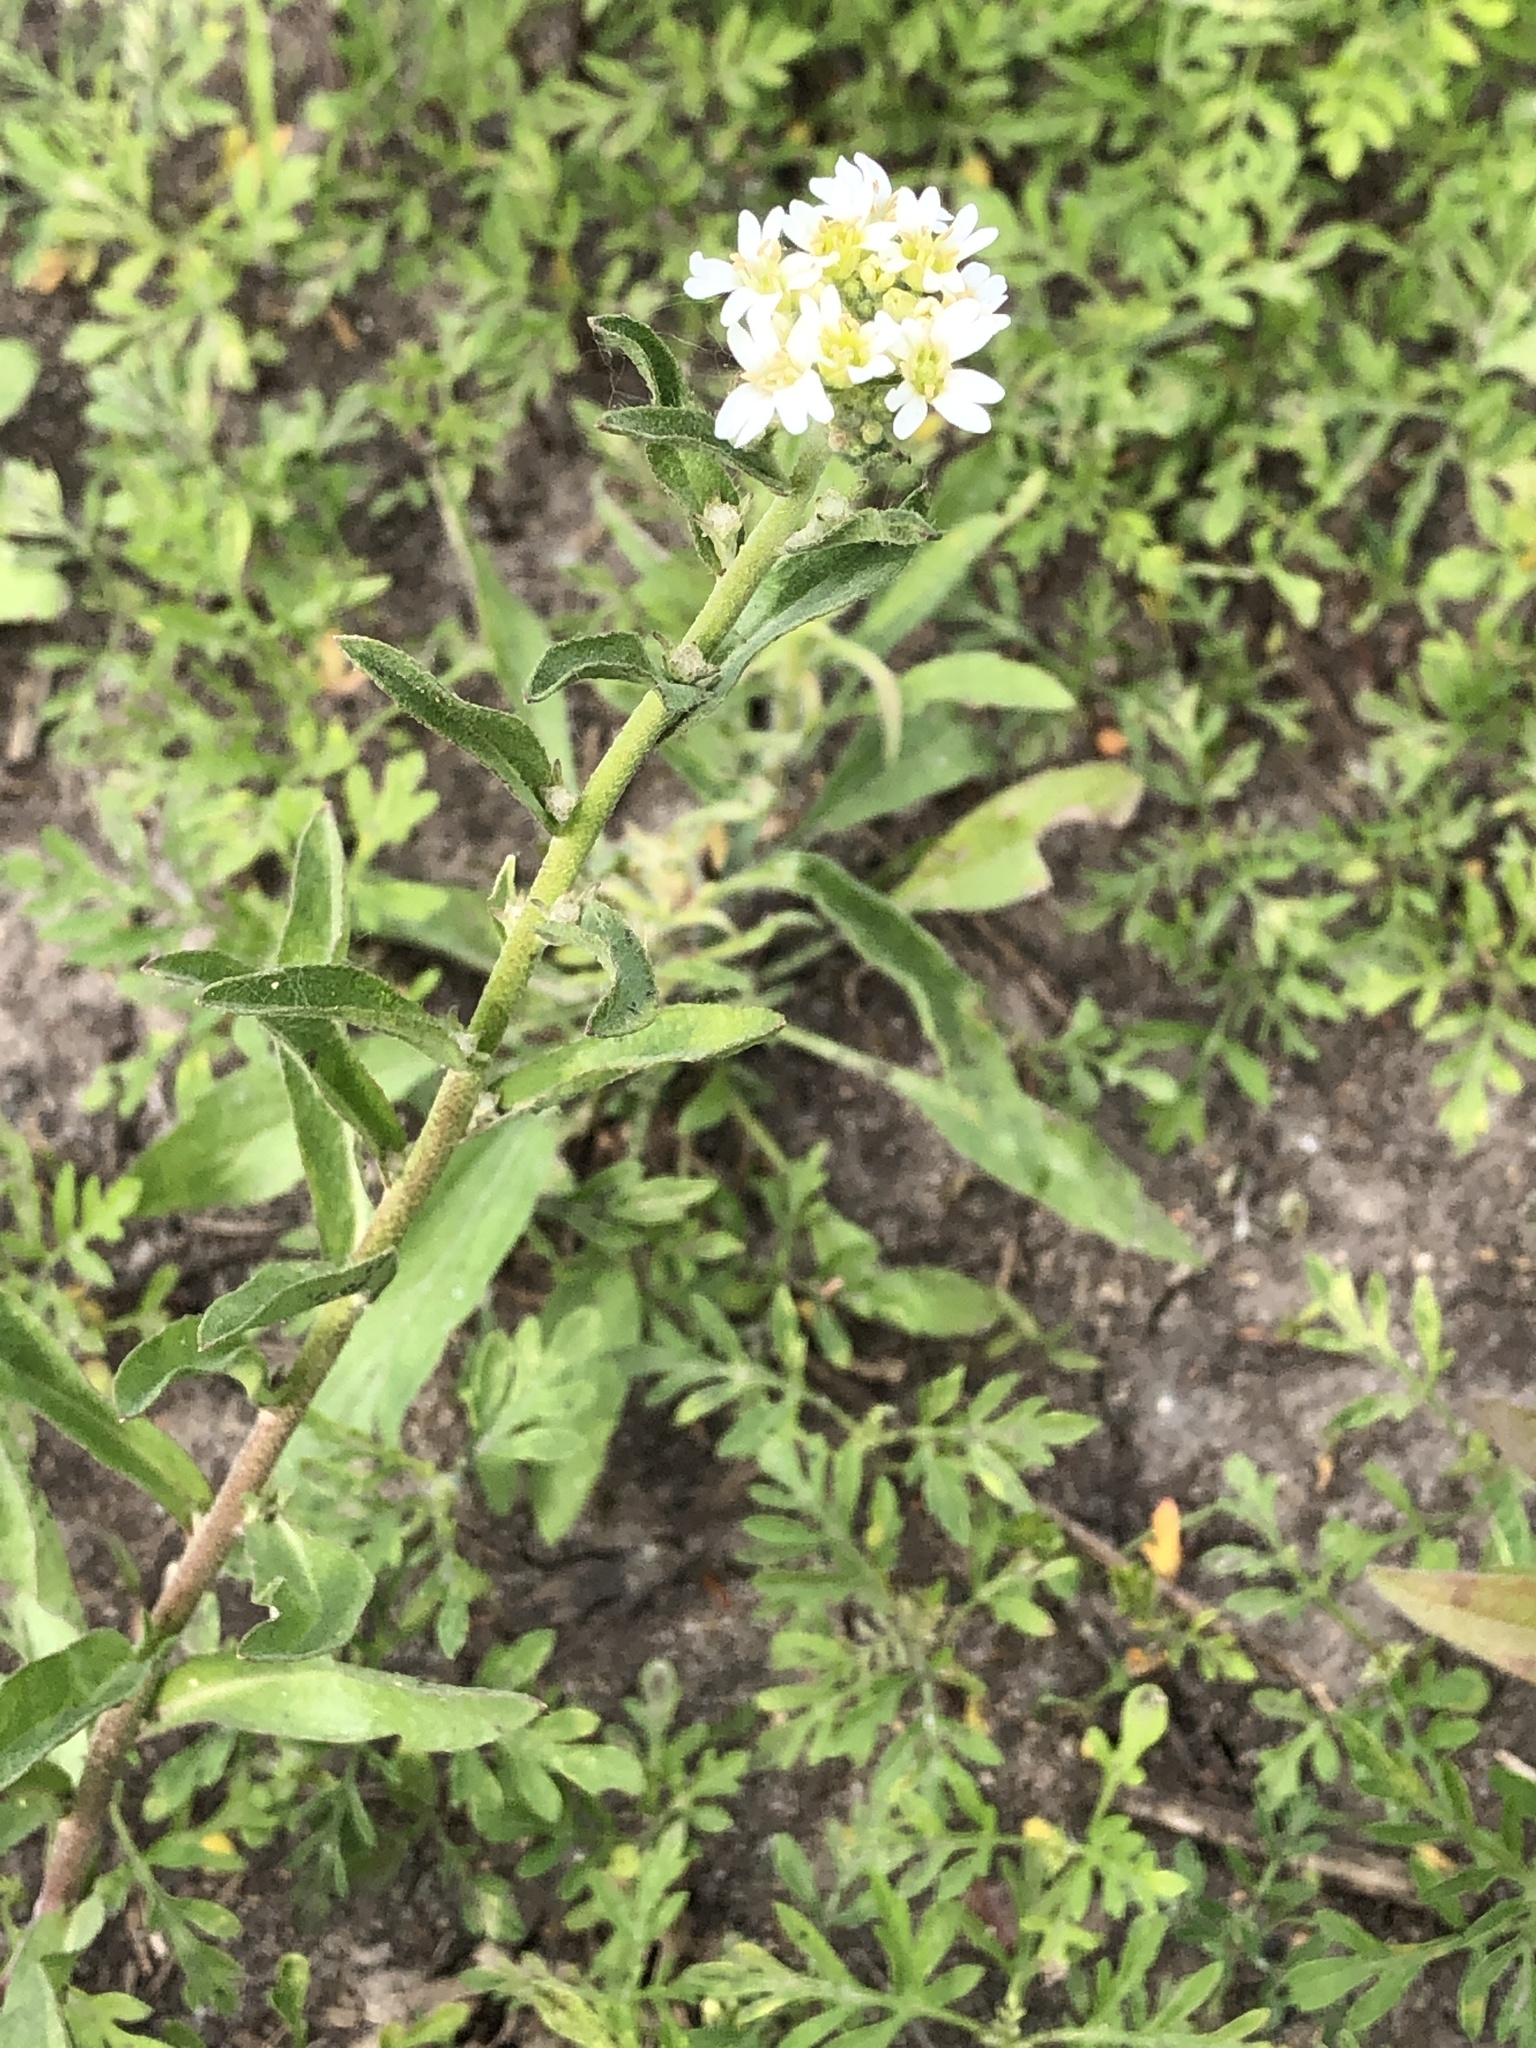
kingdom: Plantae
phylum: Tracheophyta
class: Magnoliopsida
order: Brassicales
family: Brassicaceae
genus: Berteroa
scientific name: Berteroa incana
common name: Hoary alison
